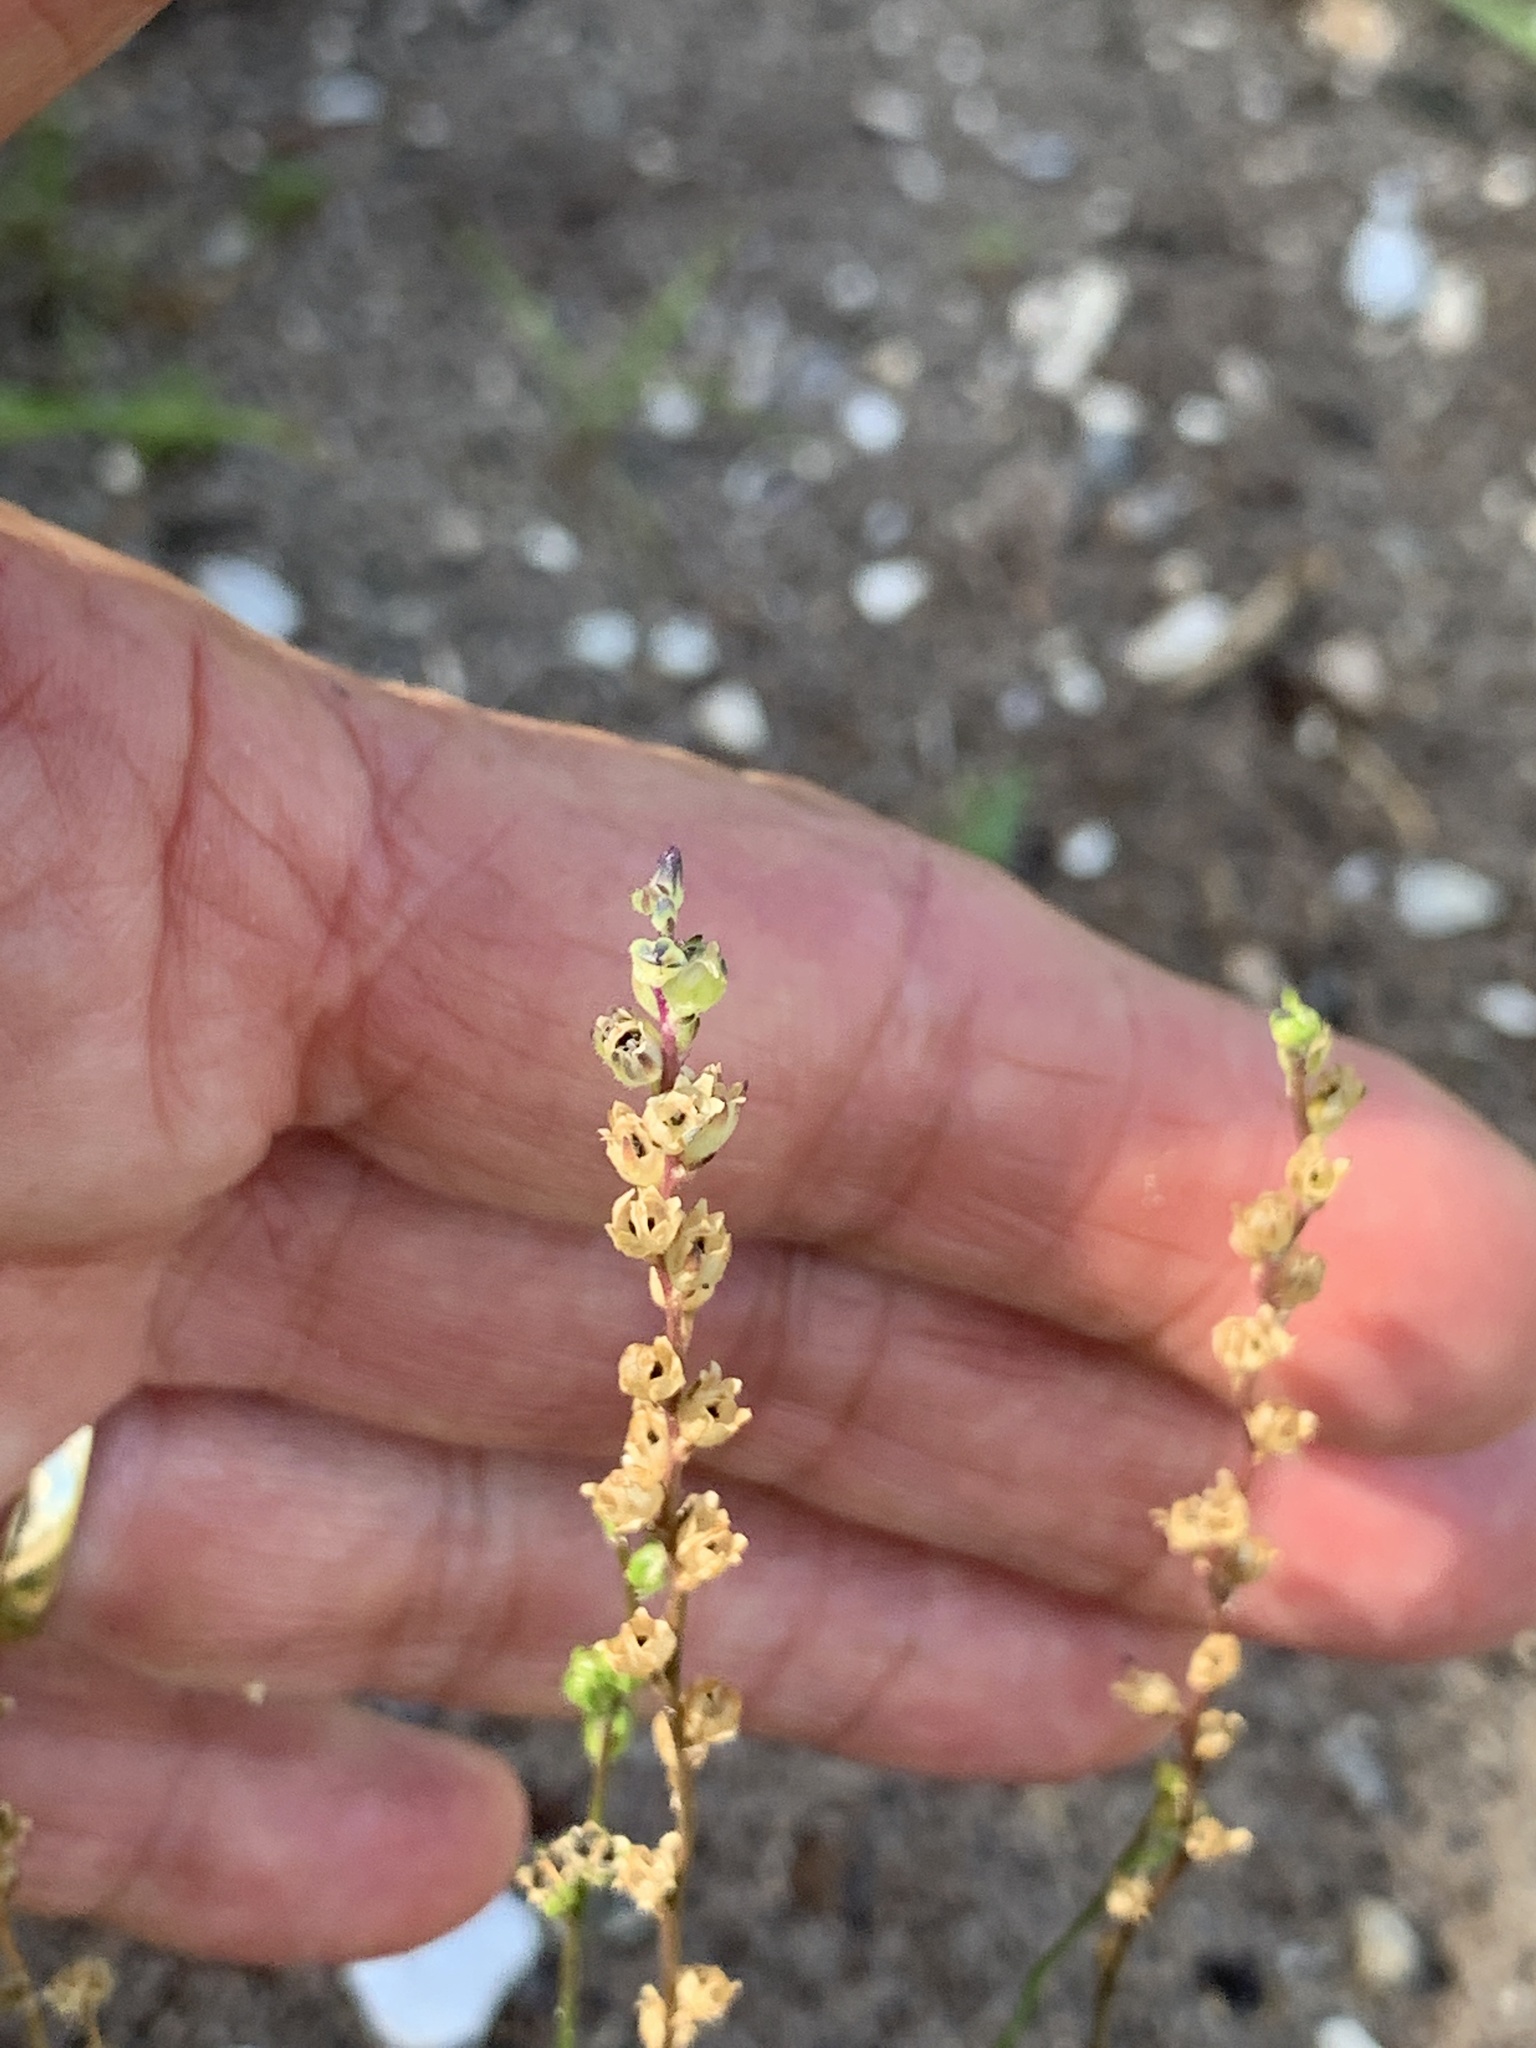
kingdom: Plantae
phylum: Tracheophyta
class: Magnoliopsida
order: Lamiales
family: Plantaginaceae
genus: Nuttallanthus
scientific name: Nuttallanthus canadensis
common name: Blue toadflax
